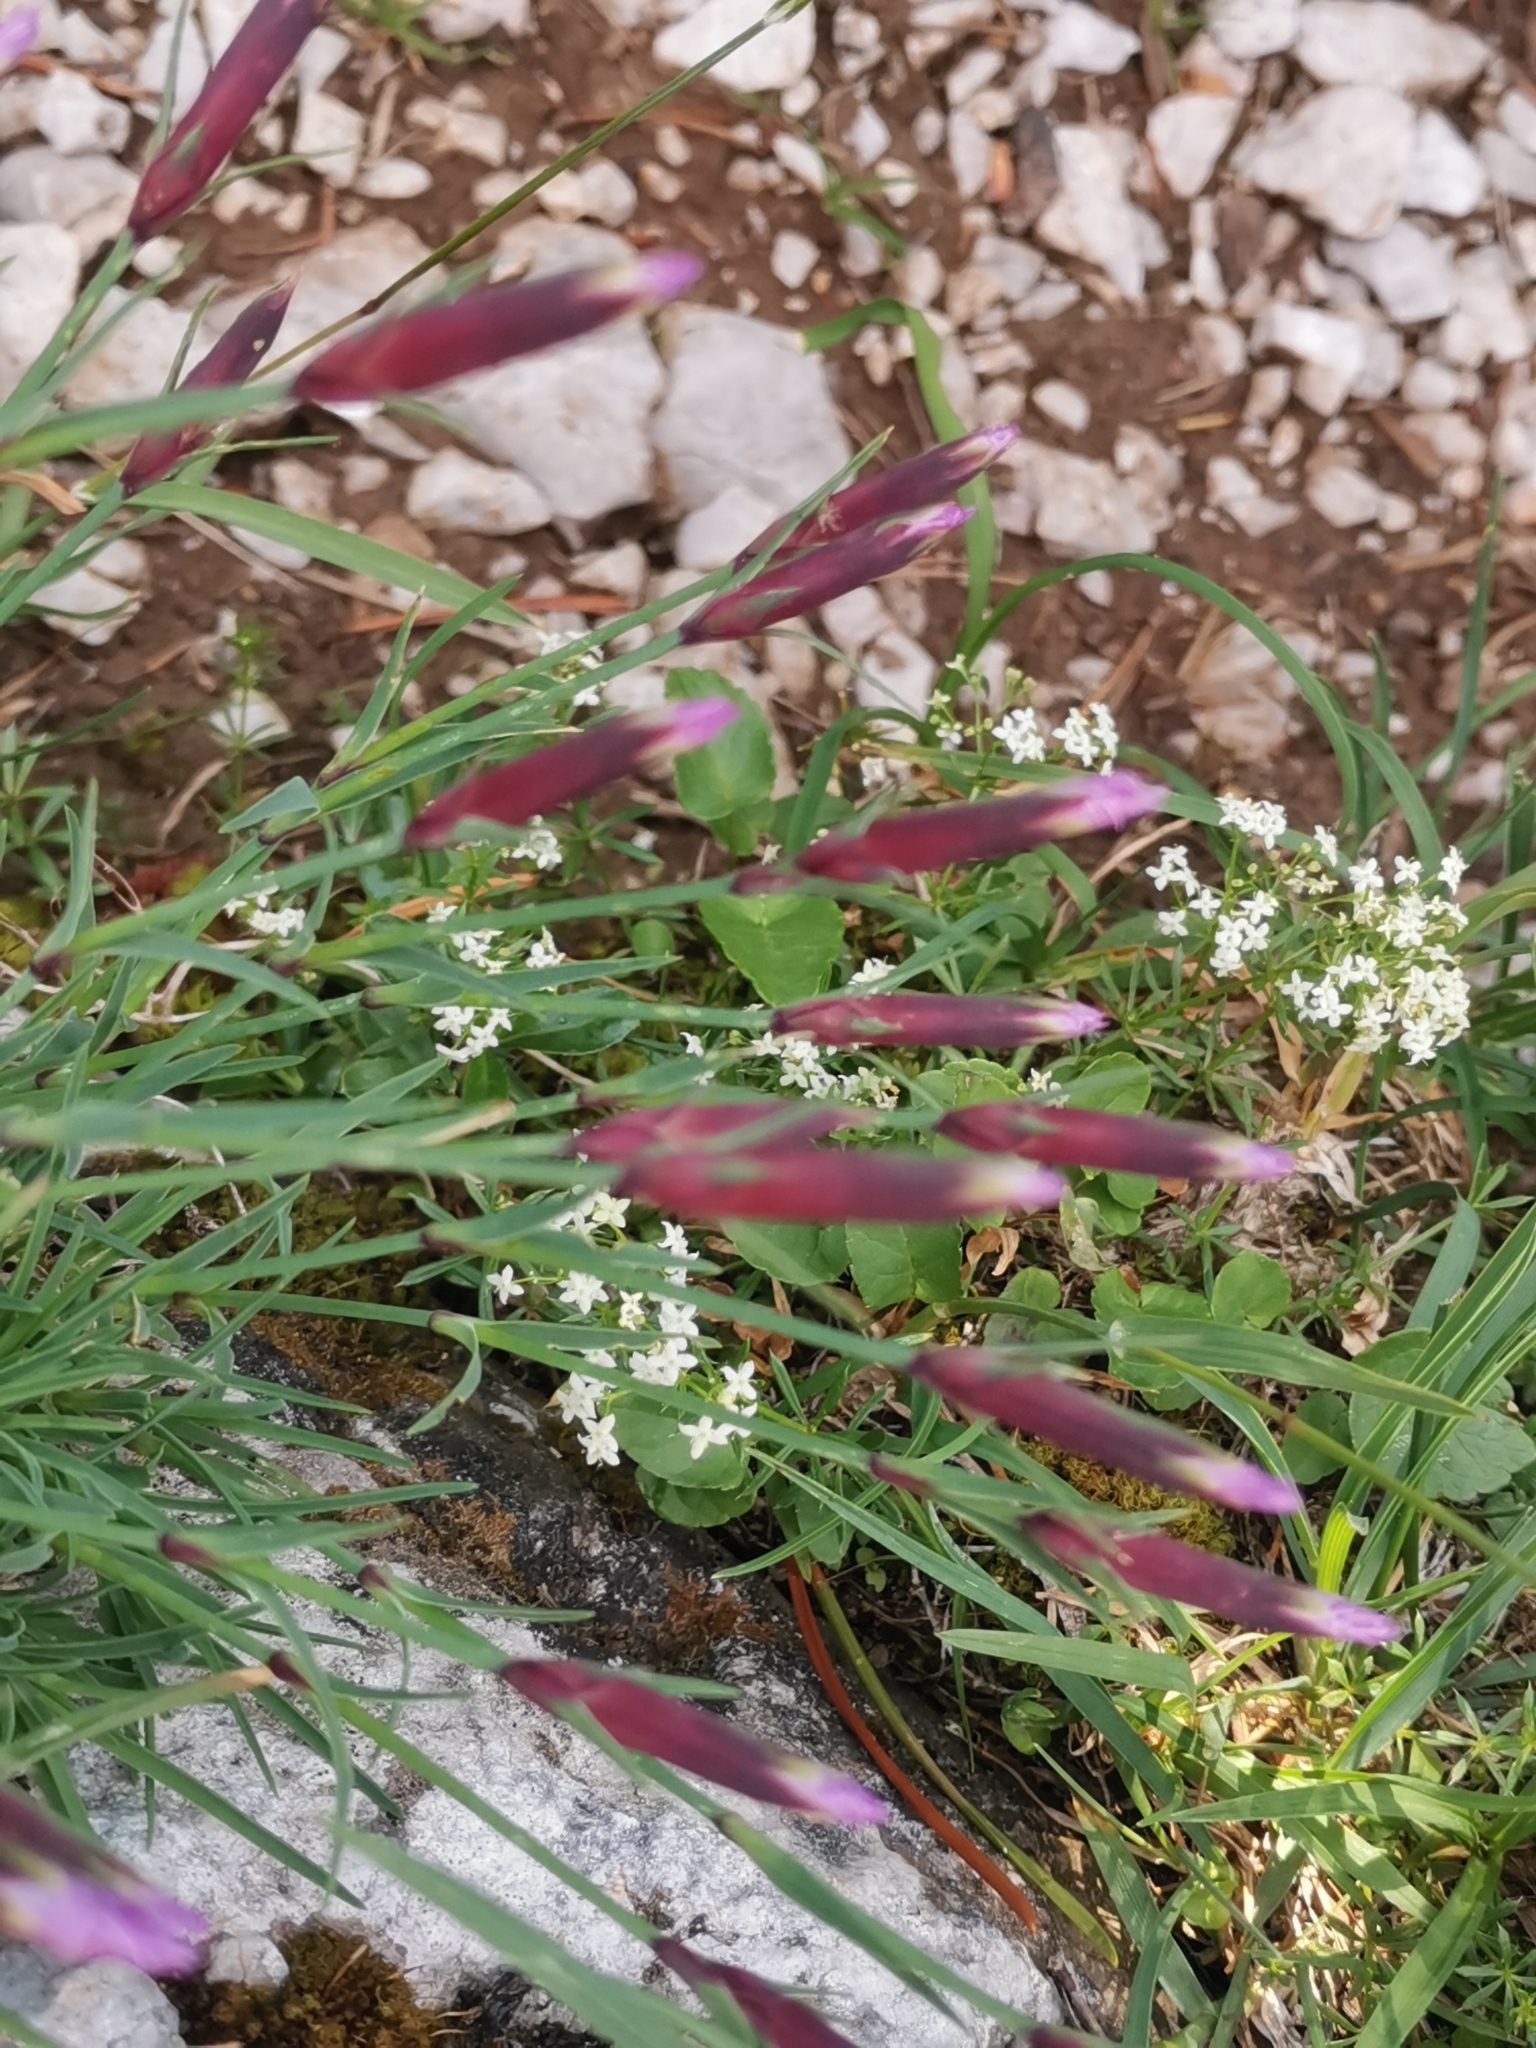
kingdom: Plantae
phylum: Tracheophyta
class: Magnoliopsida
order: Caryophyllales
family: Caryophyllaceae
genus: Dianthus
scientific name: Dianthus sternbergii
